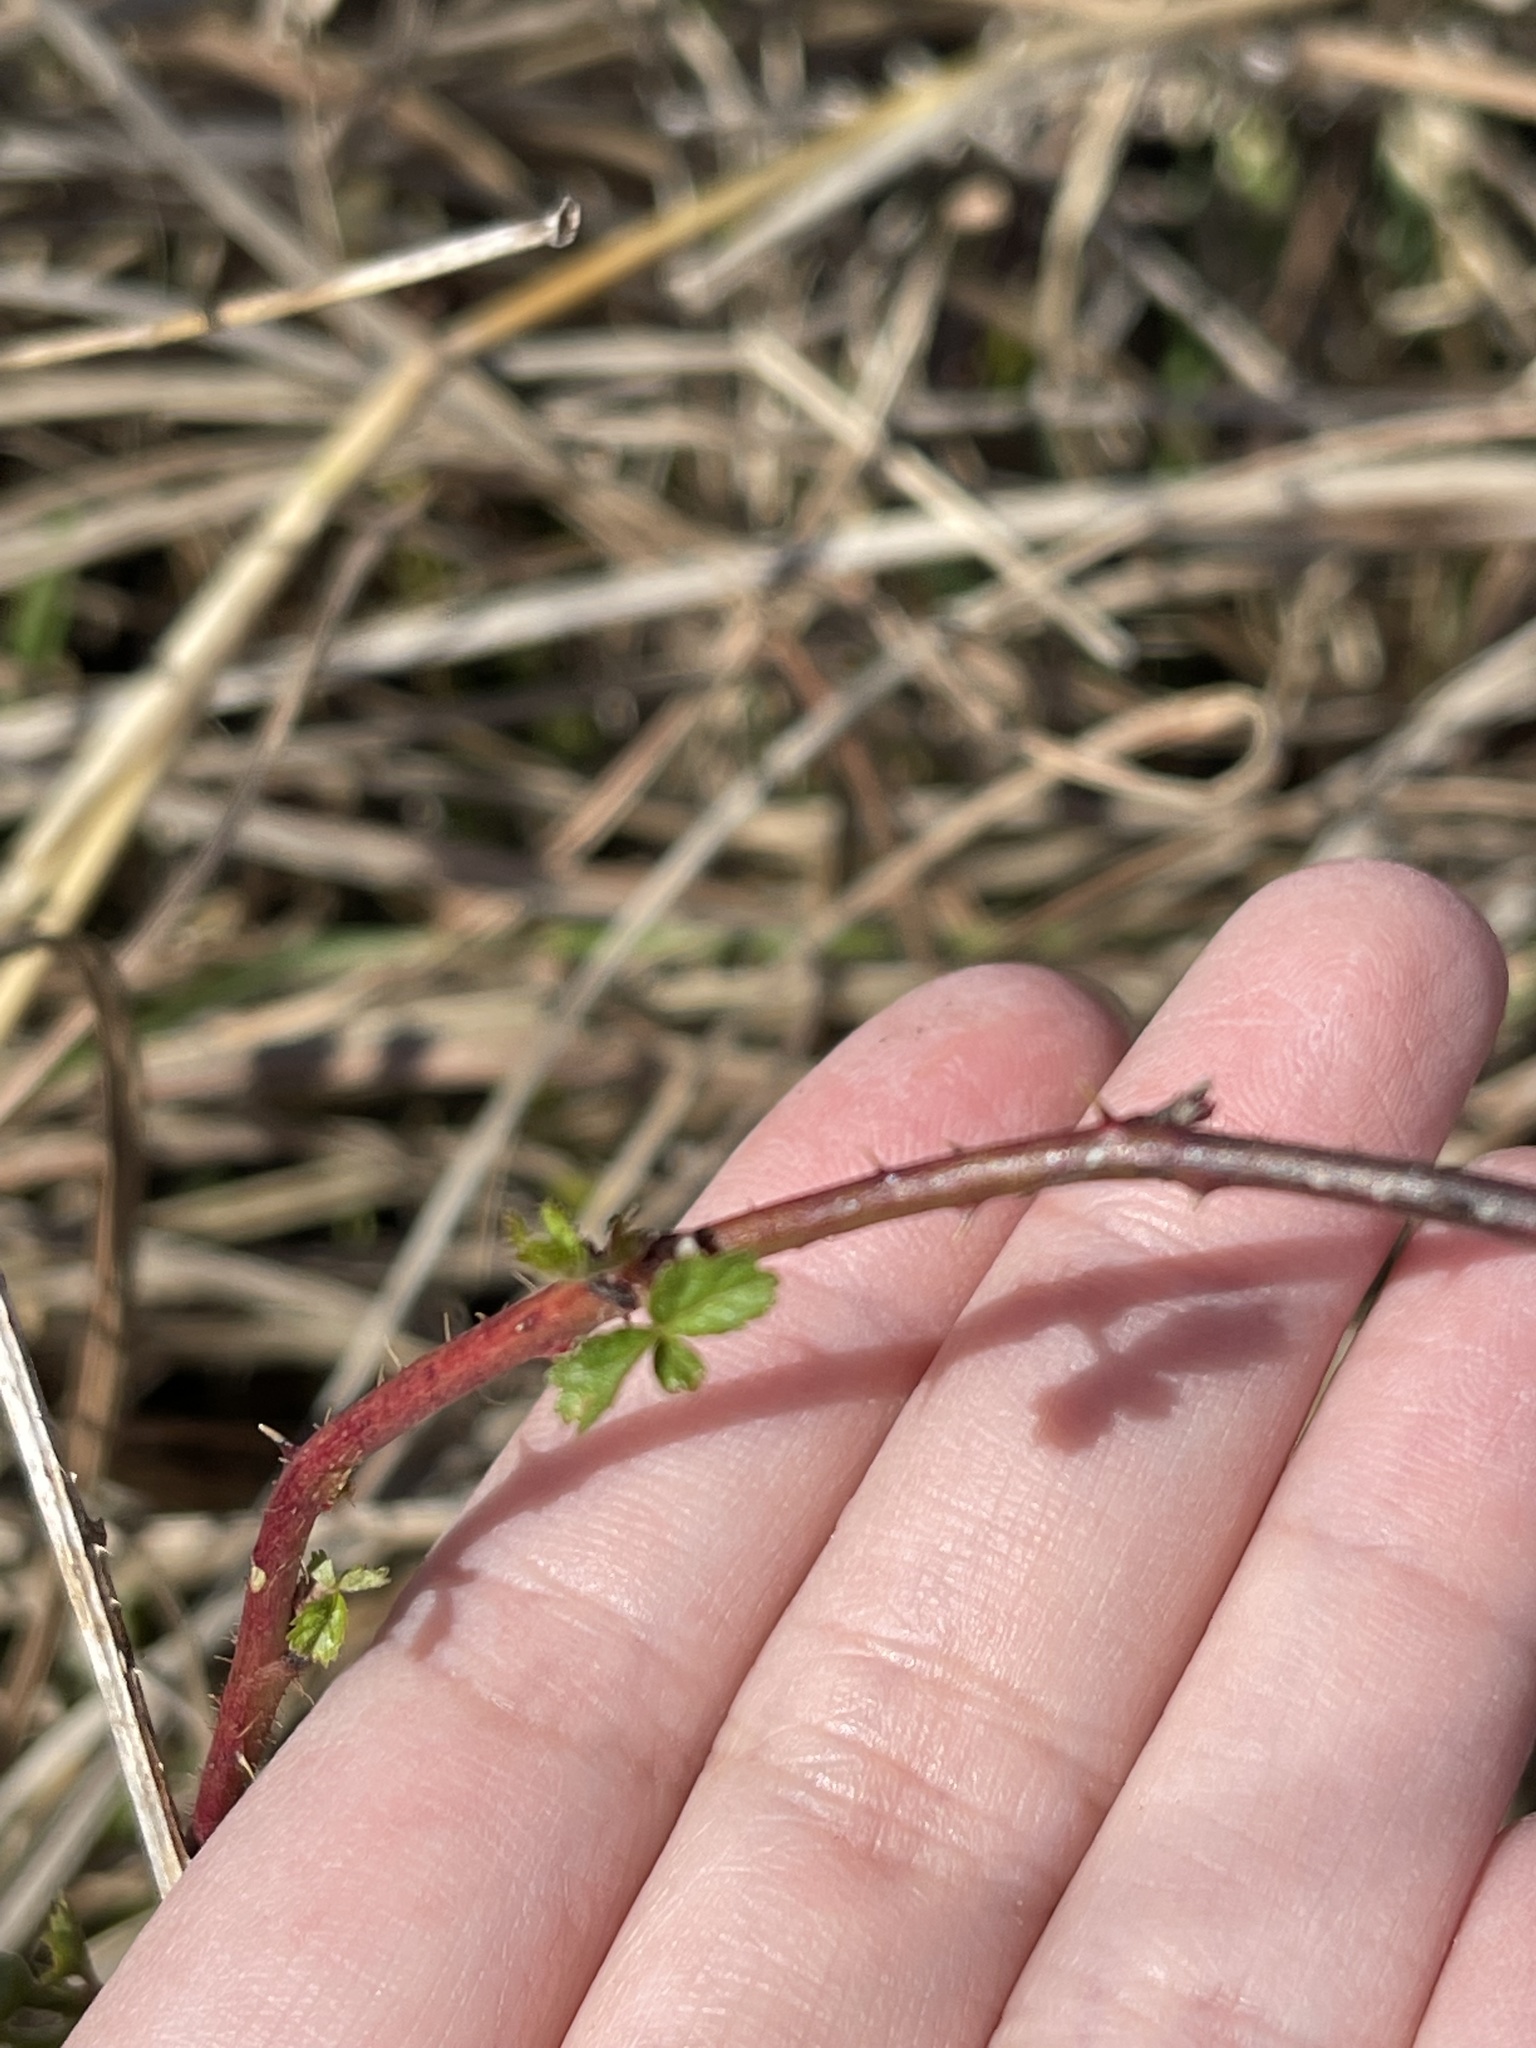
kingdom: Plantae
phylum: Tracheophyta
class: Magnoliopsida
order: Rosales
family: Rosaceae
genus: Rubus
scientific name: Rubus trivialis
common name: Southern dewberry
